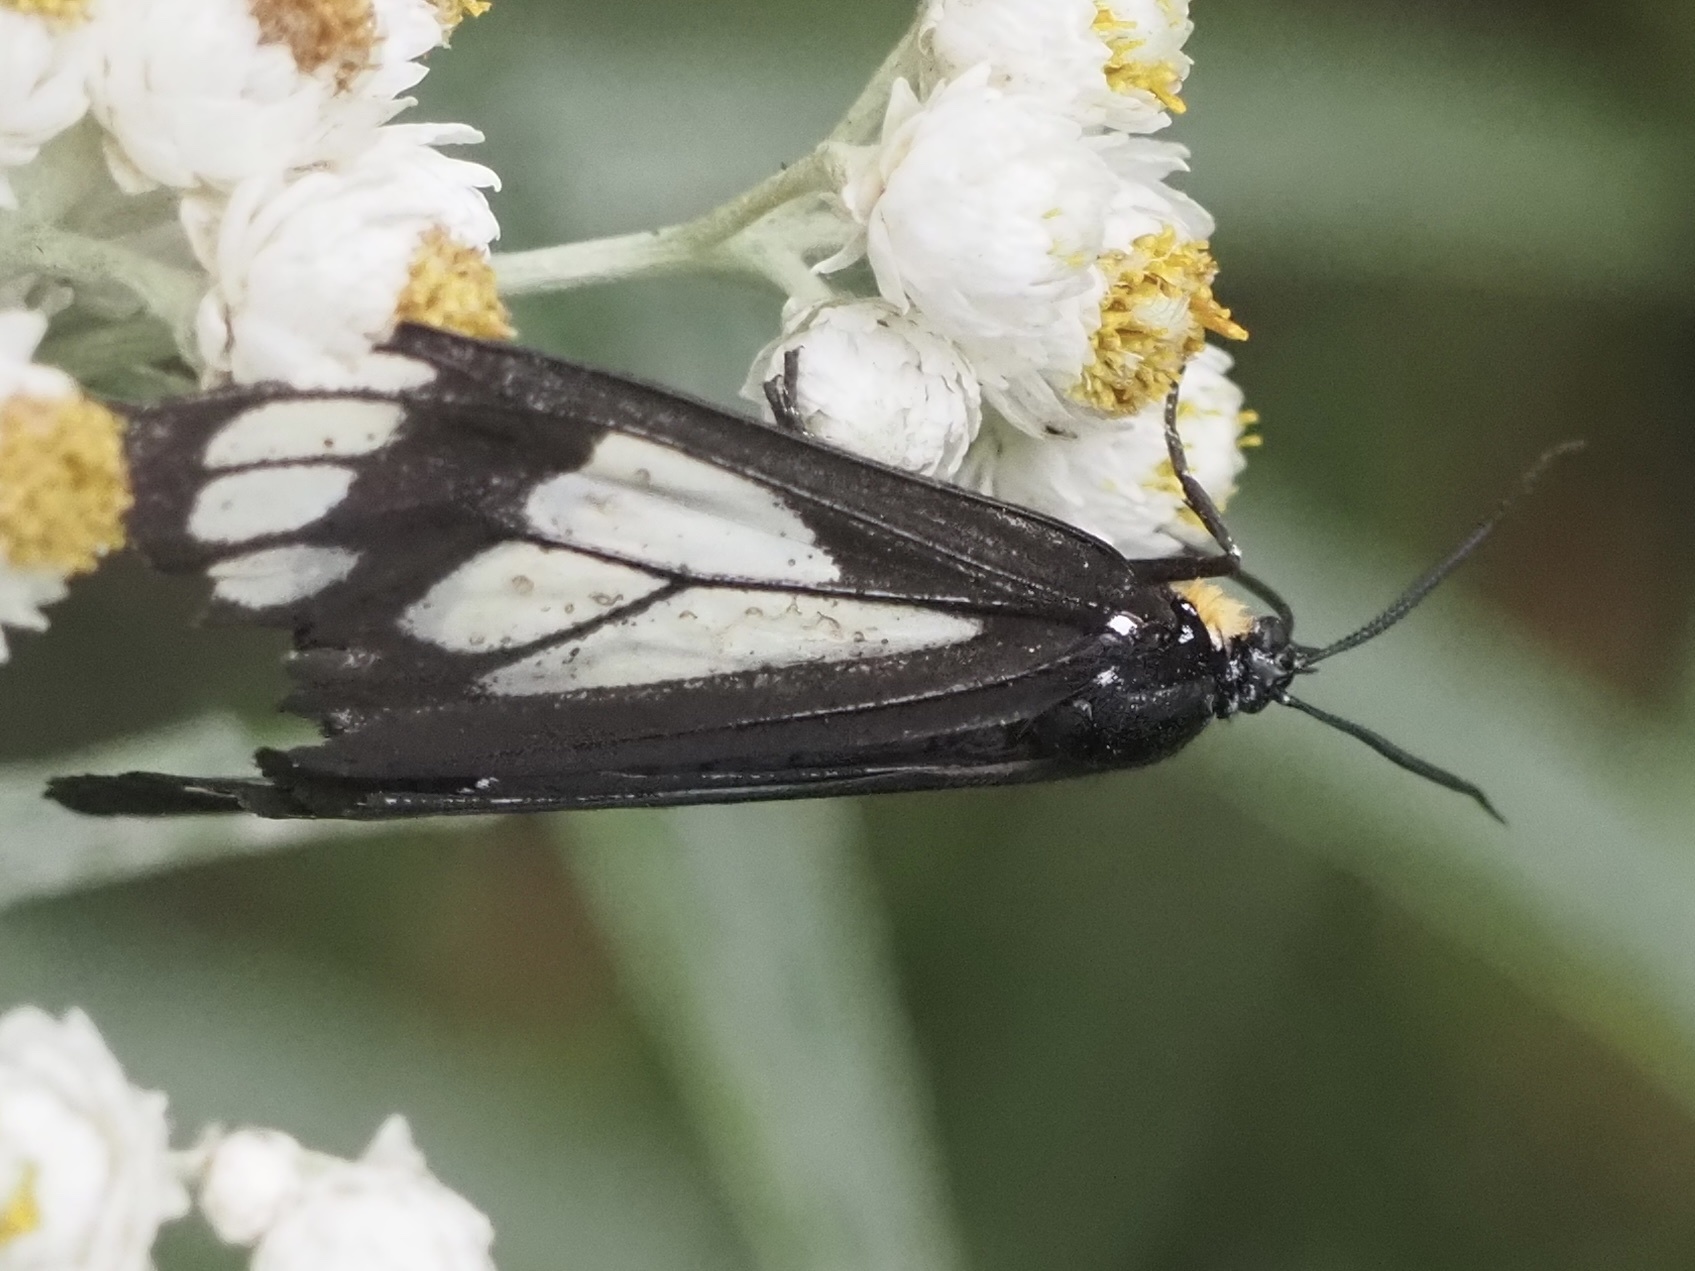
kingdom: Animalia
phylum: Arthropoda
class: Insecta
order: Lepidoptera
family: Erebidae
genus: Gnophaela
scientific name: Gnophaela vermiculata
